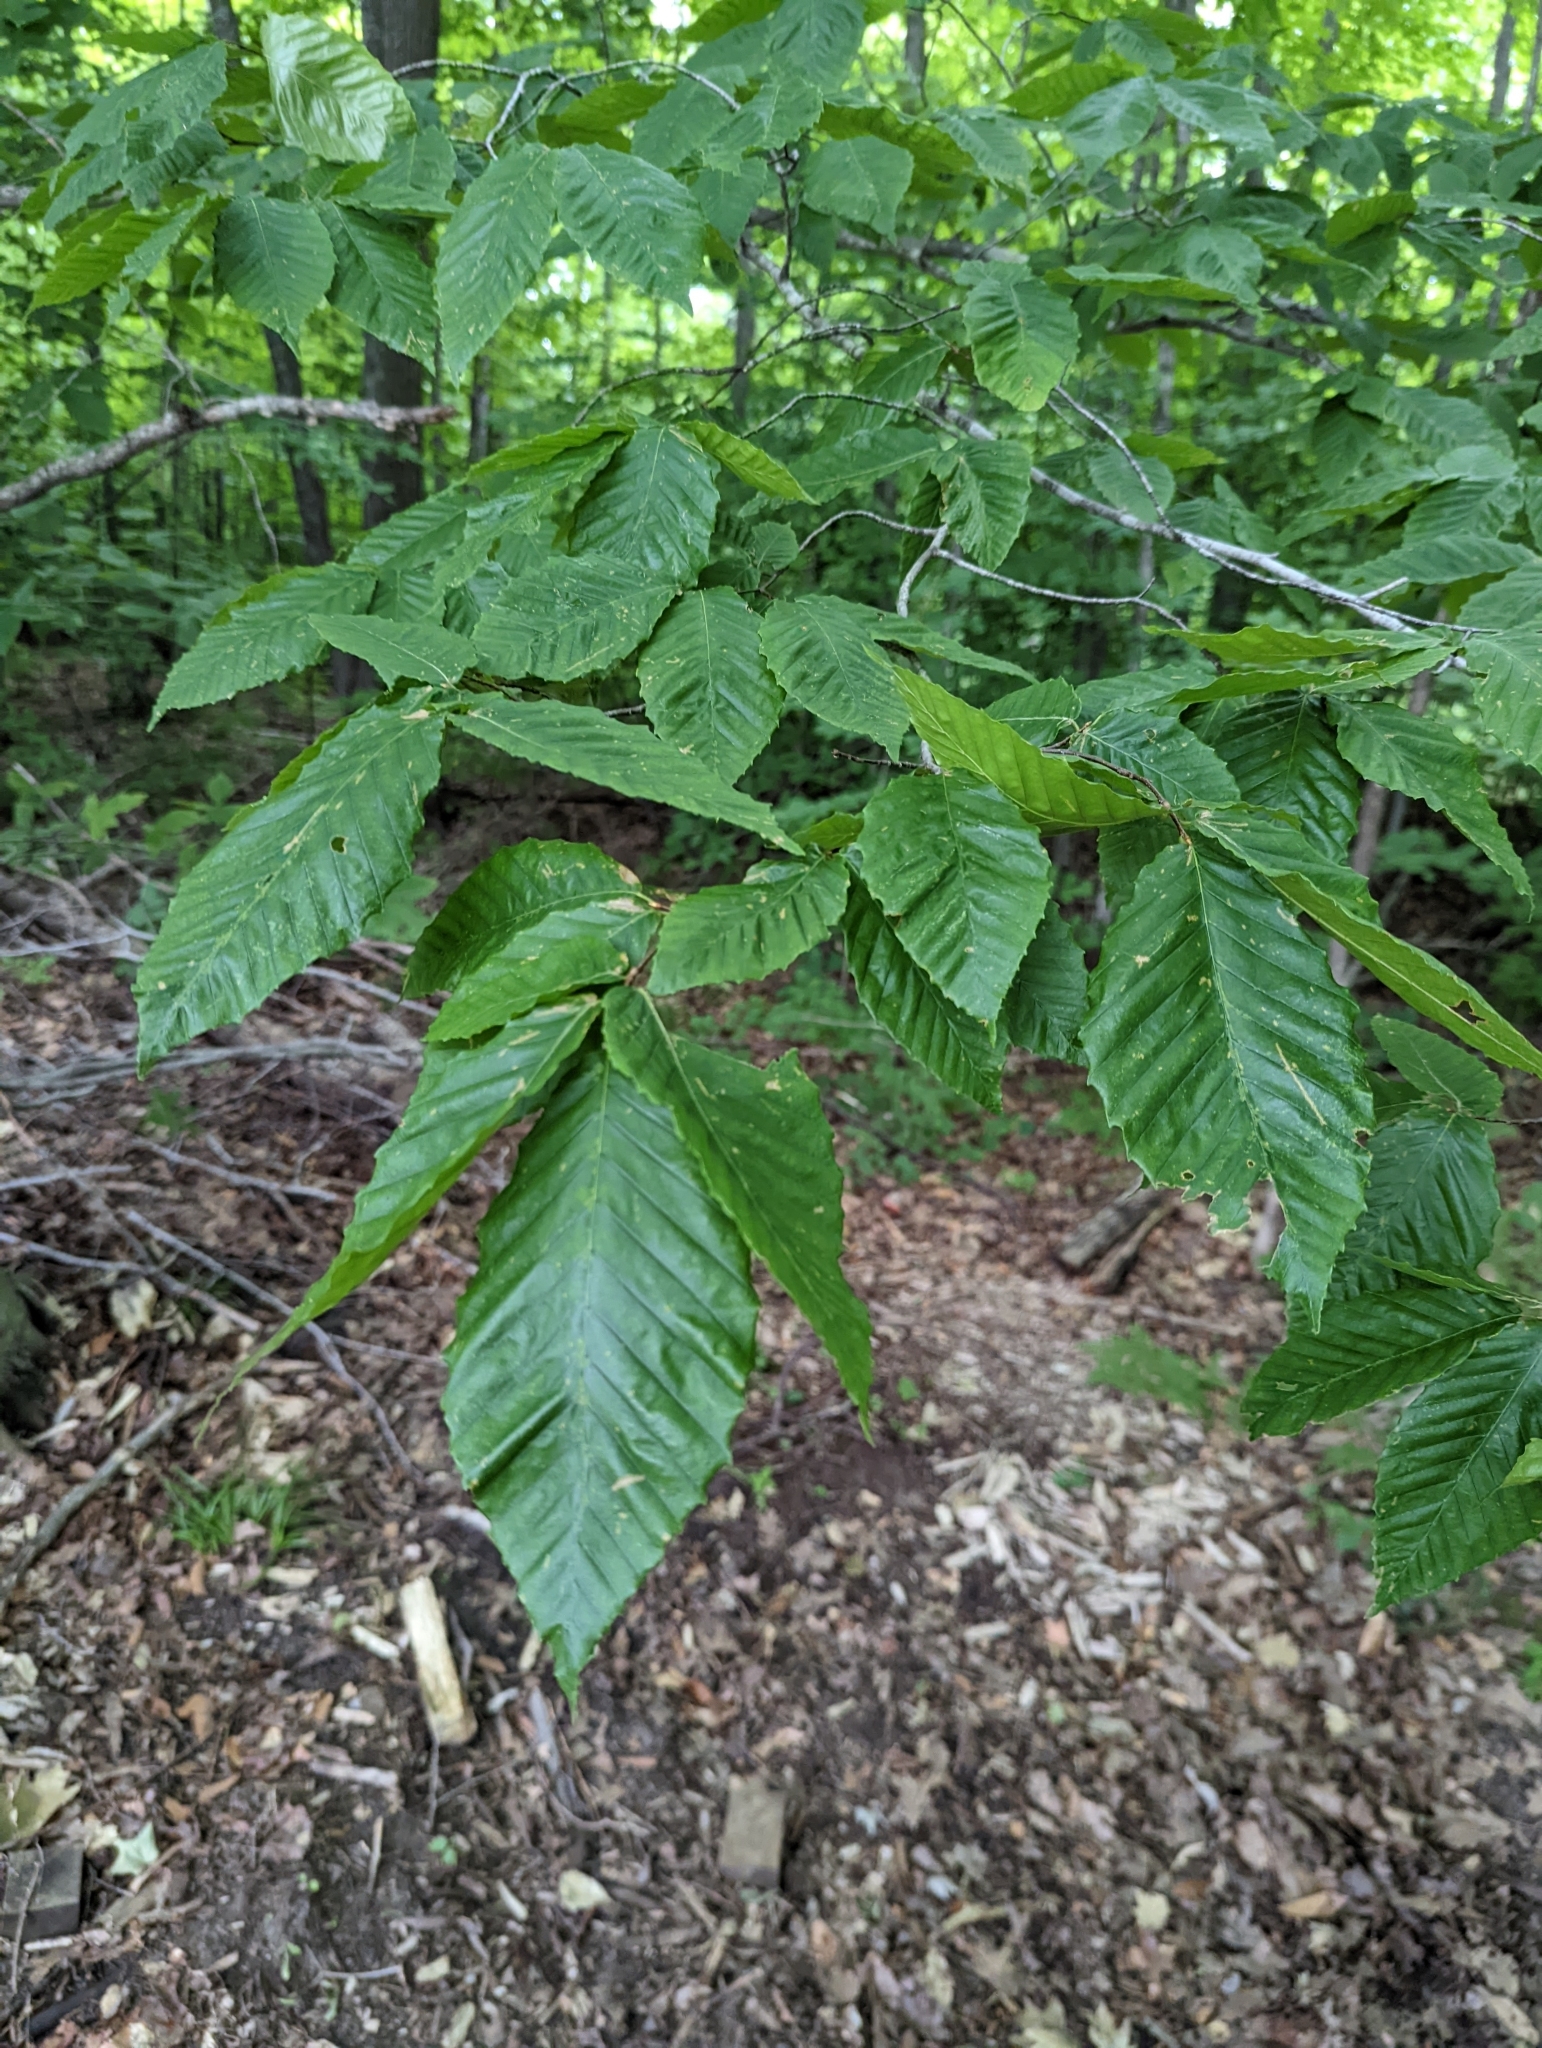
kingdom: Plantae
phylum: Tracheophyta
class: Magnoliopsida
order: Fagales
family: Fagaceae
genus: Fagus
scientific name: Fagus grandifolia
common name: American beech
